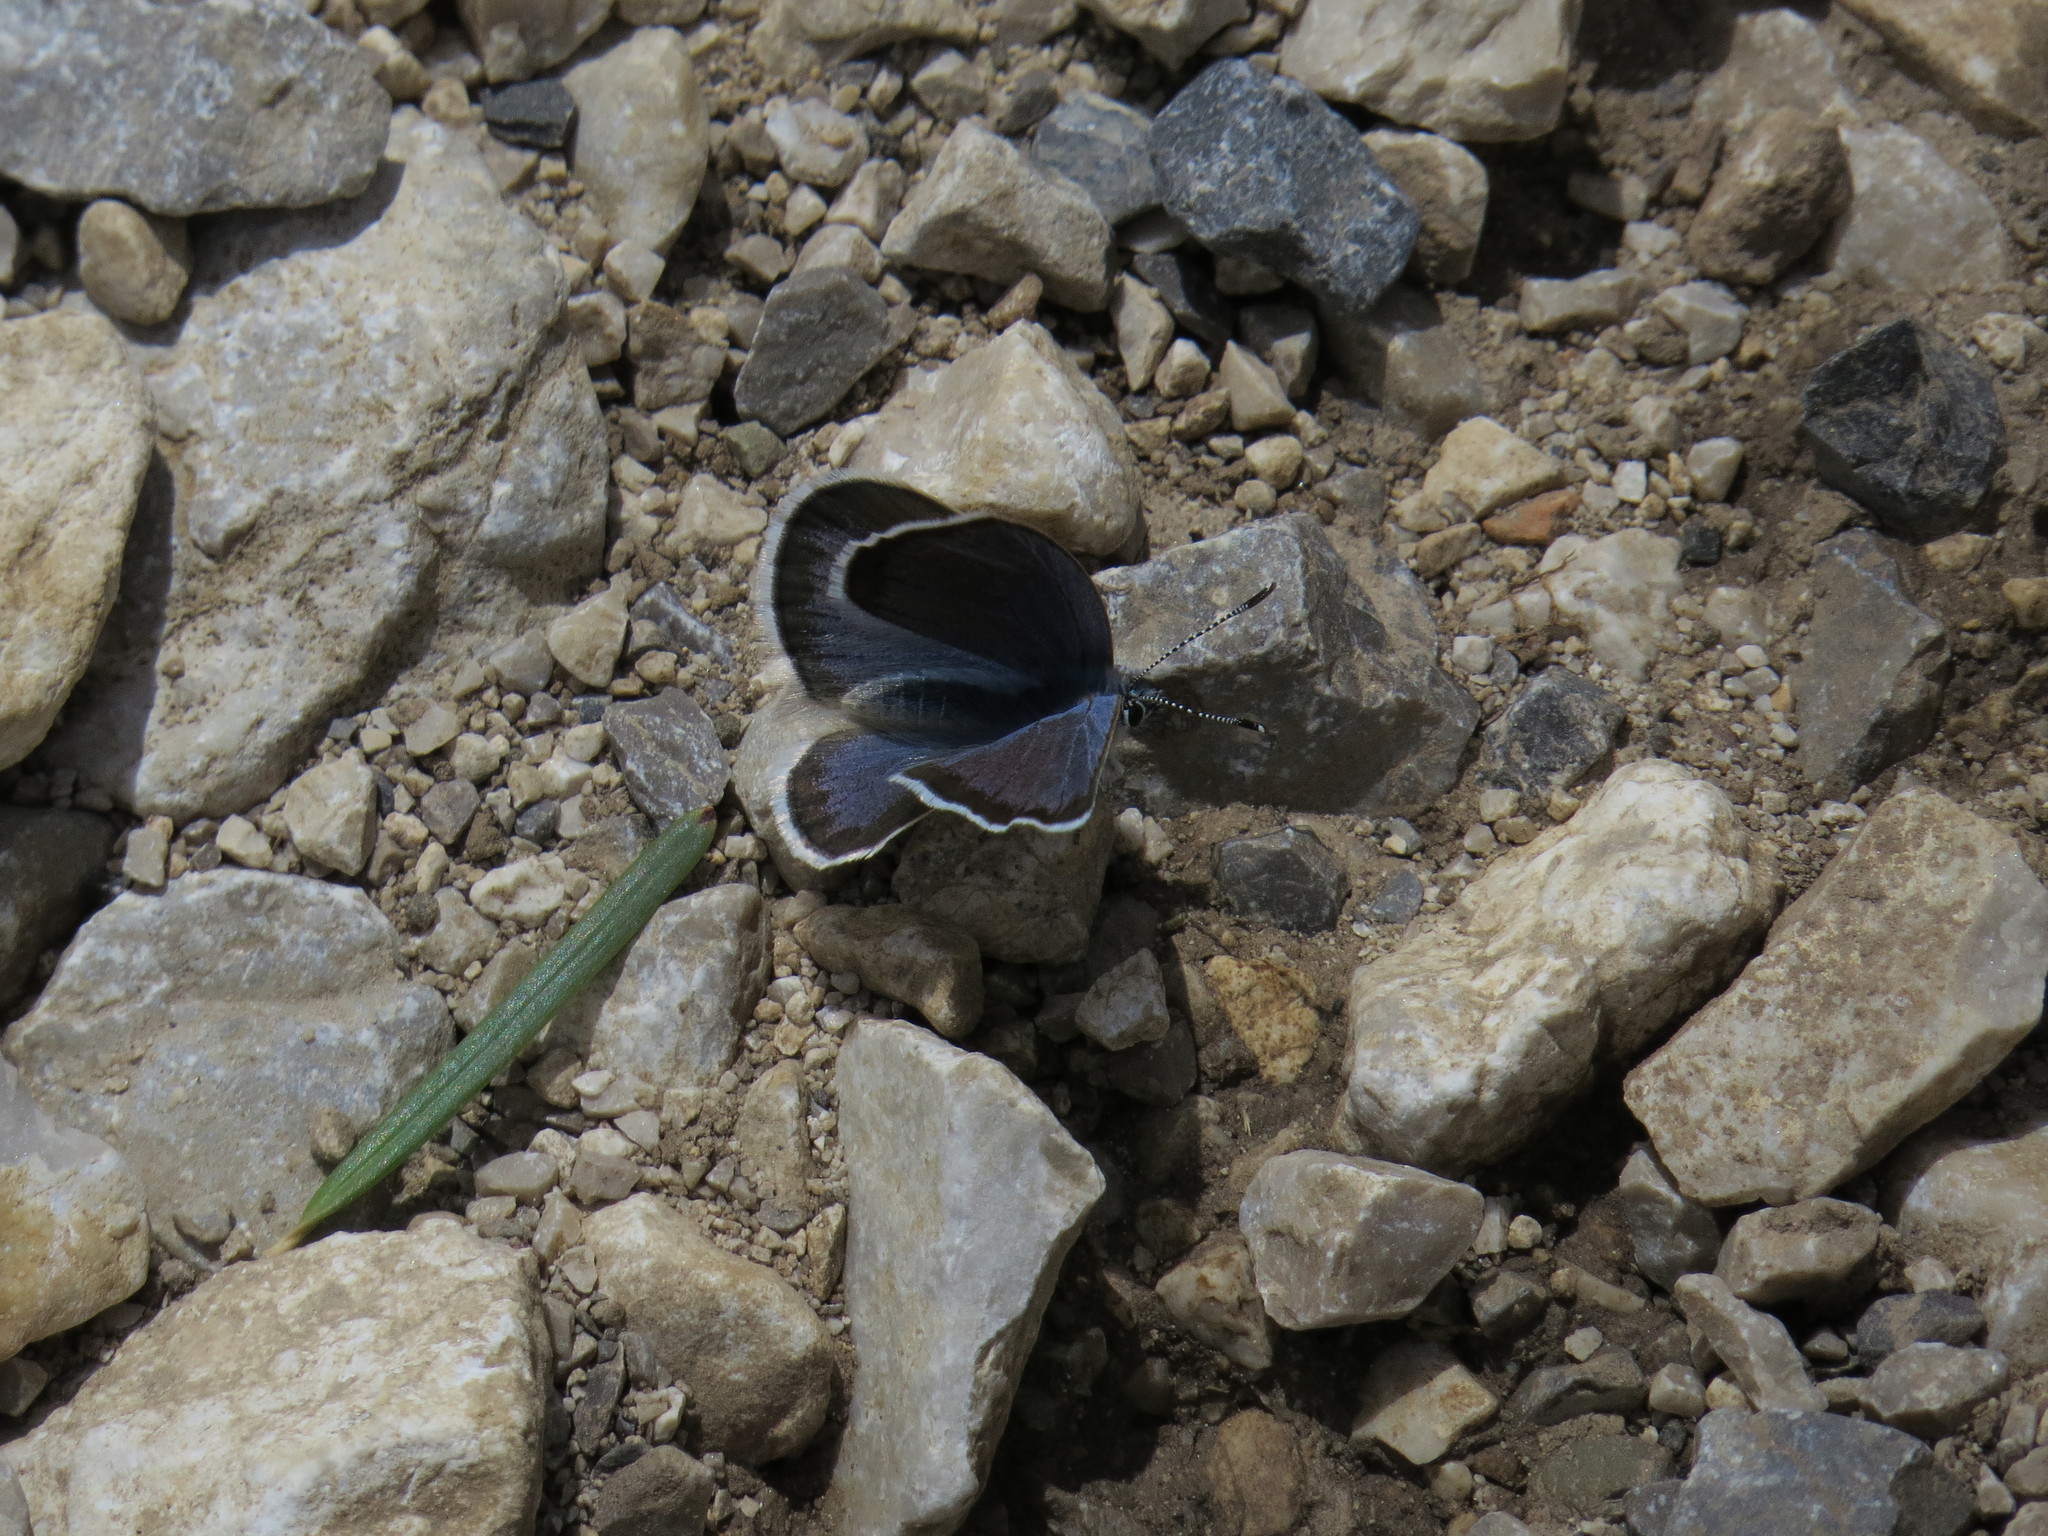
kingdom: Animalia
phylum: Arthropoda
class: Insecta
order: Lepidoptera
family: Lycaenidae
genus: Glaucopsyche
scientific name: Glaucopsyche astraea
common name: Anatolian black-eyed blue
